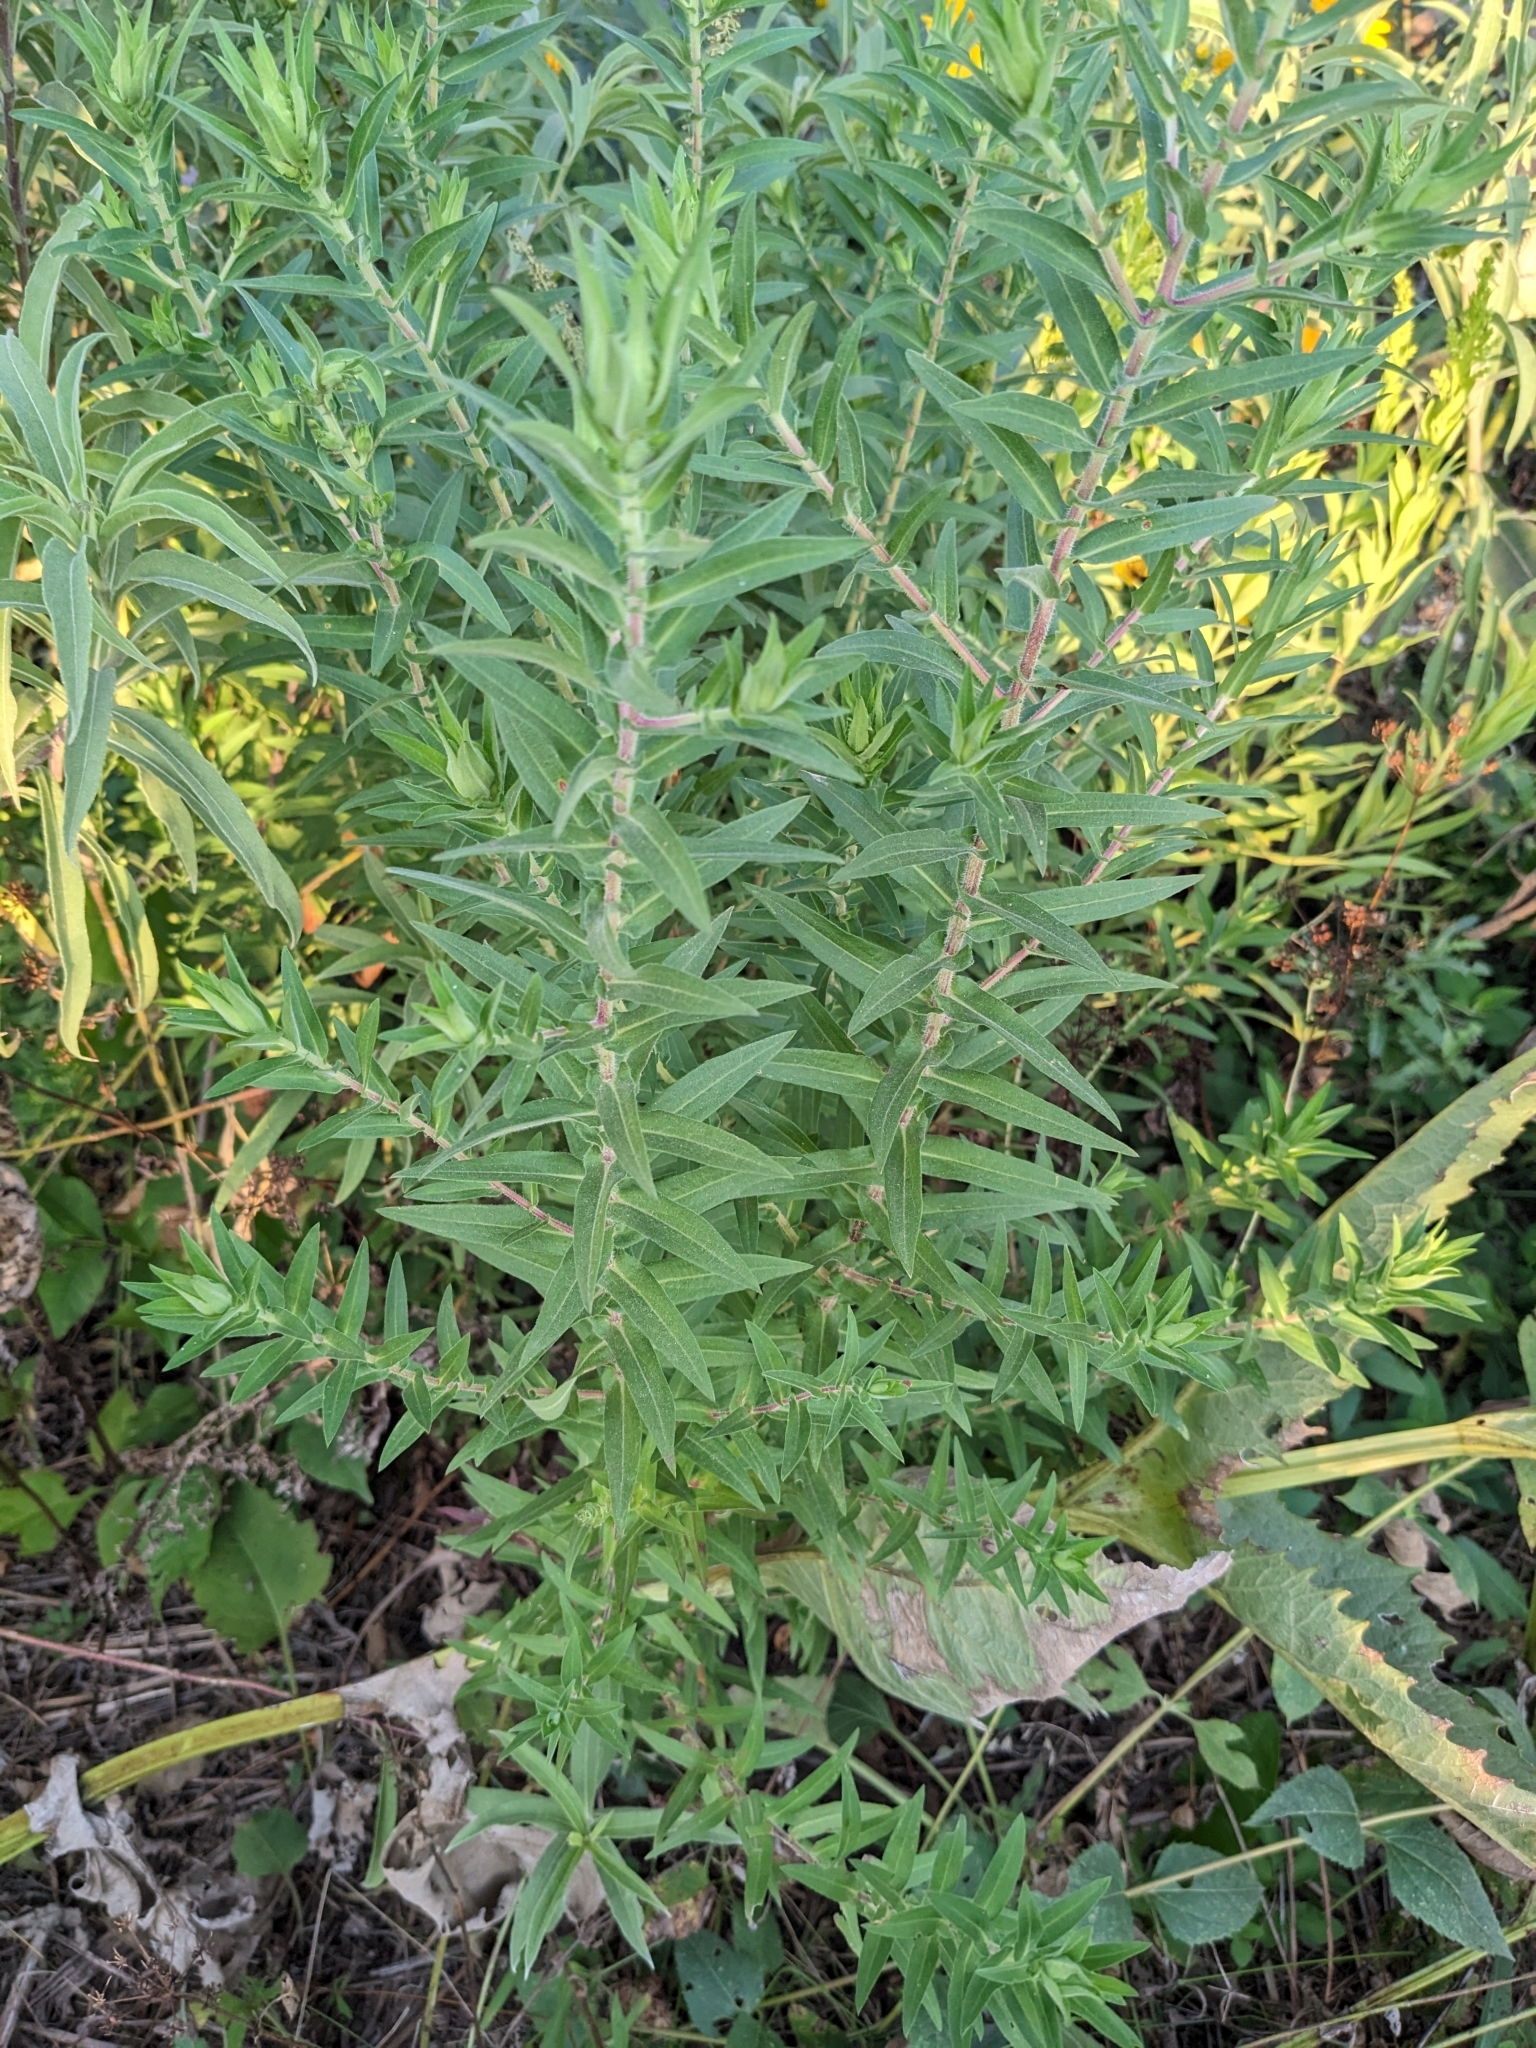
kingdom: Plantae
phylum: Tracheophyta
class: Magnoliopsida
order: Asterales
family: Asteraceae
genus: Symphyotrichum
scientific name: Symphyotrichum novae-angliae
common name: Michaelmas daisy
